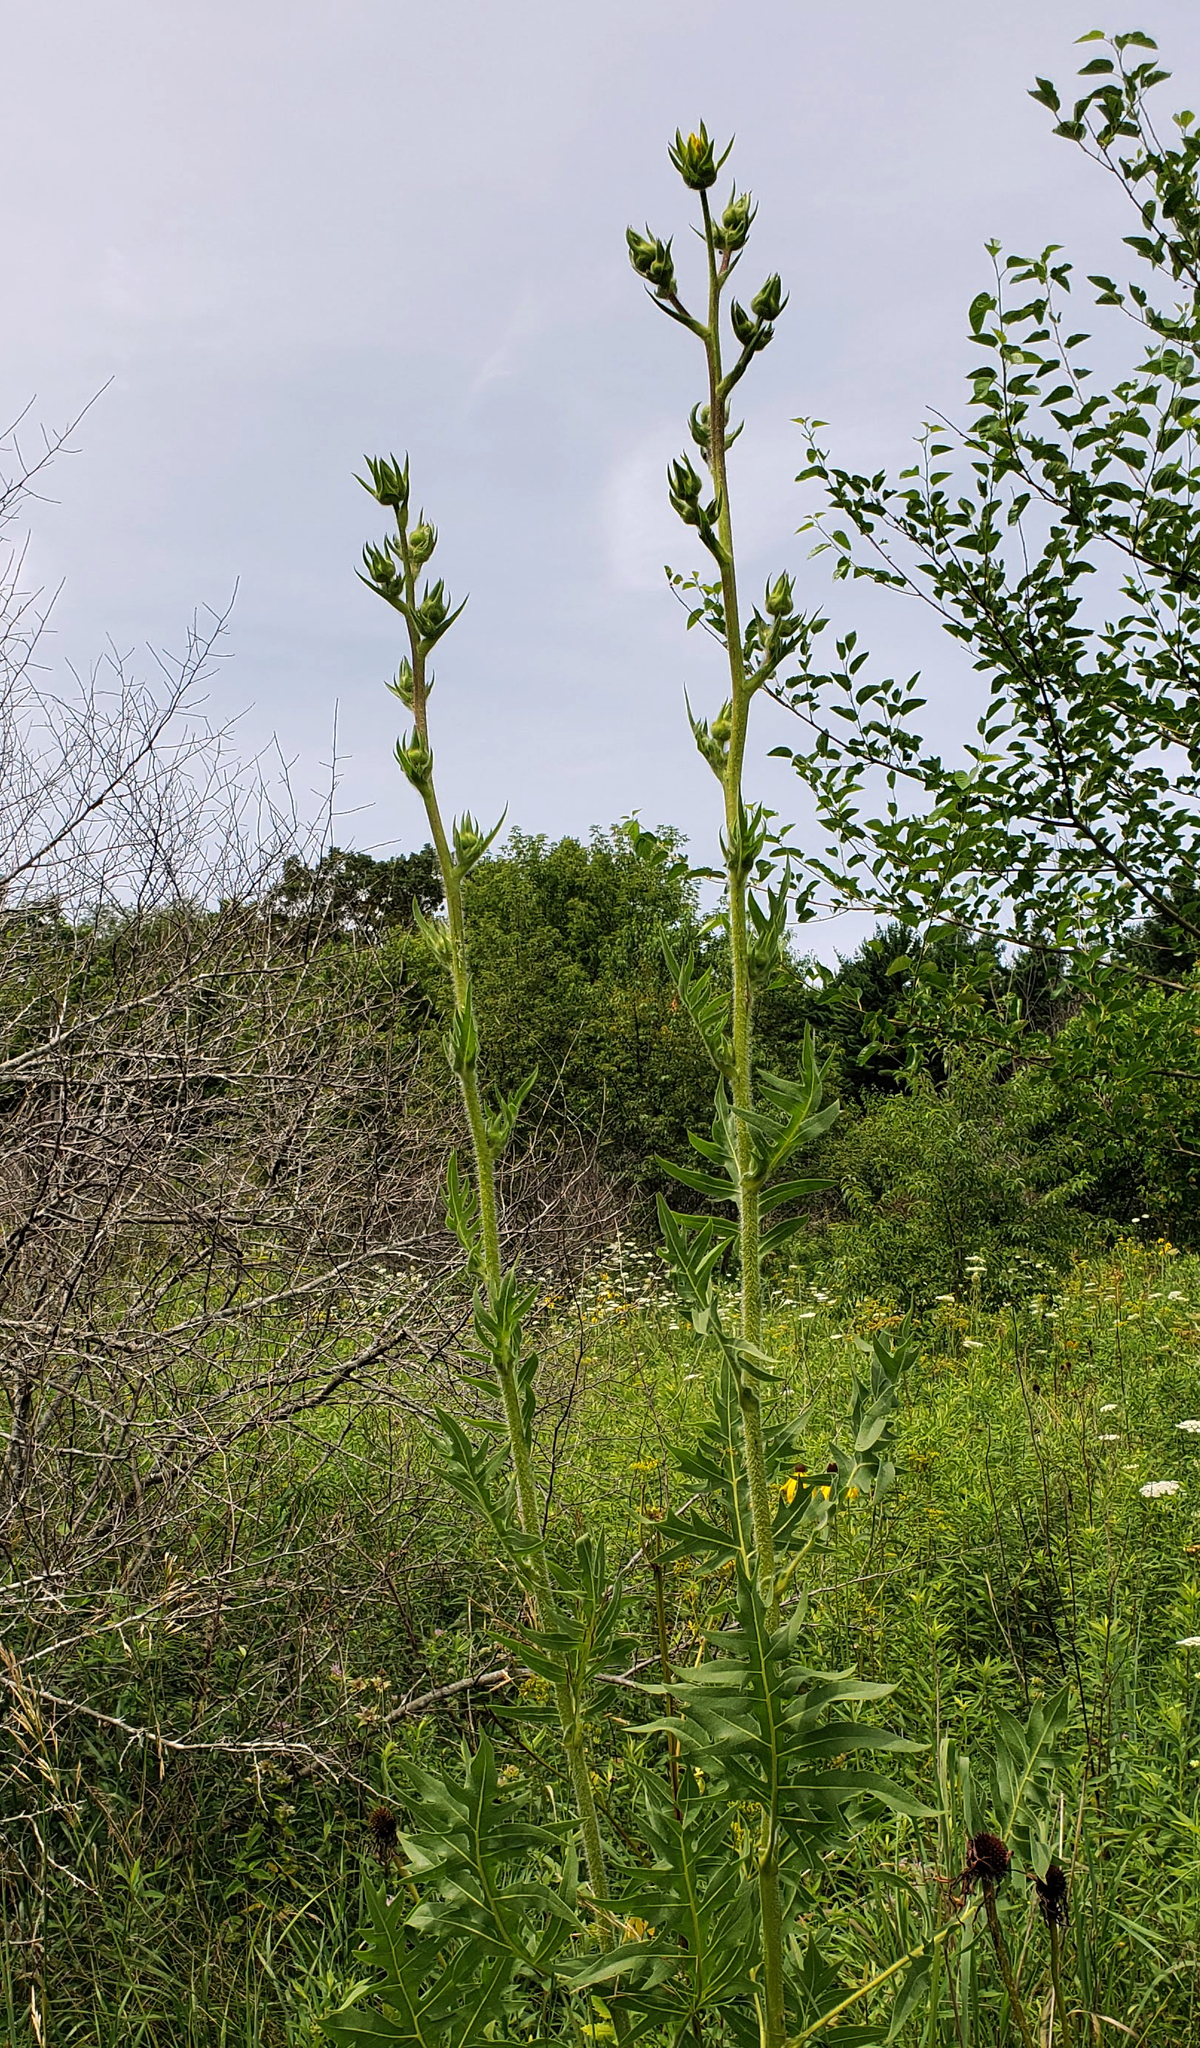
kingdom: Plantae
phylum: Tracheophyta
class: Magnoliopsida
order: Asterales
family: Asteraceae
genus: Silphium
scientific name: Silphium laciniatum
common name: Polarplant
